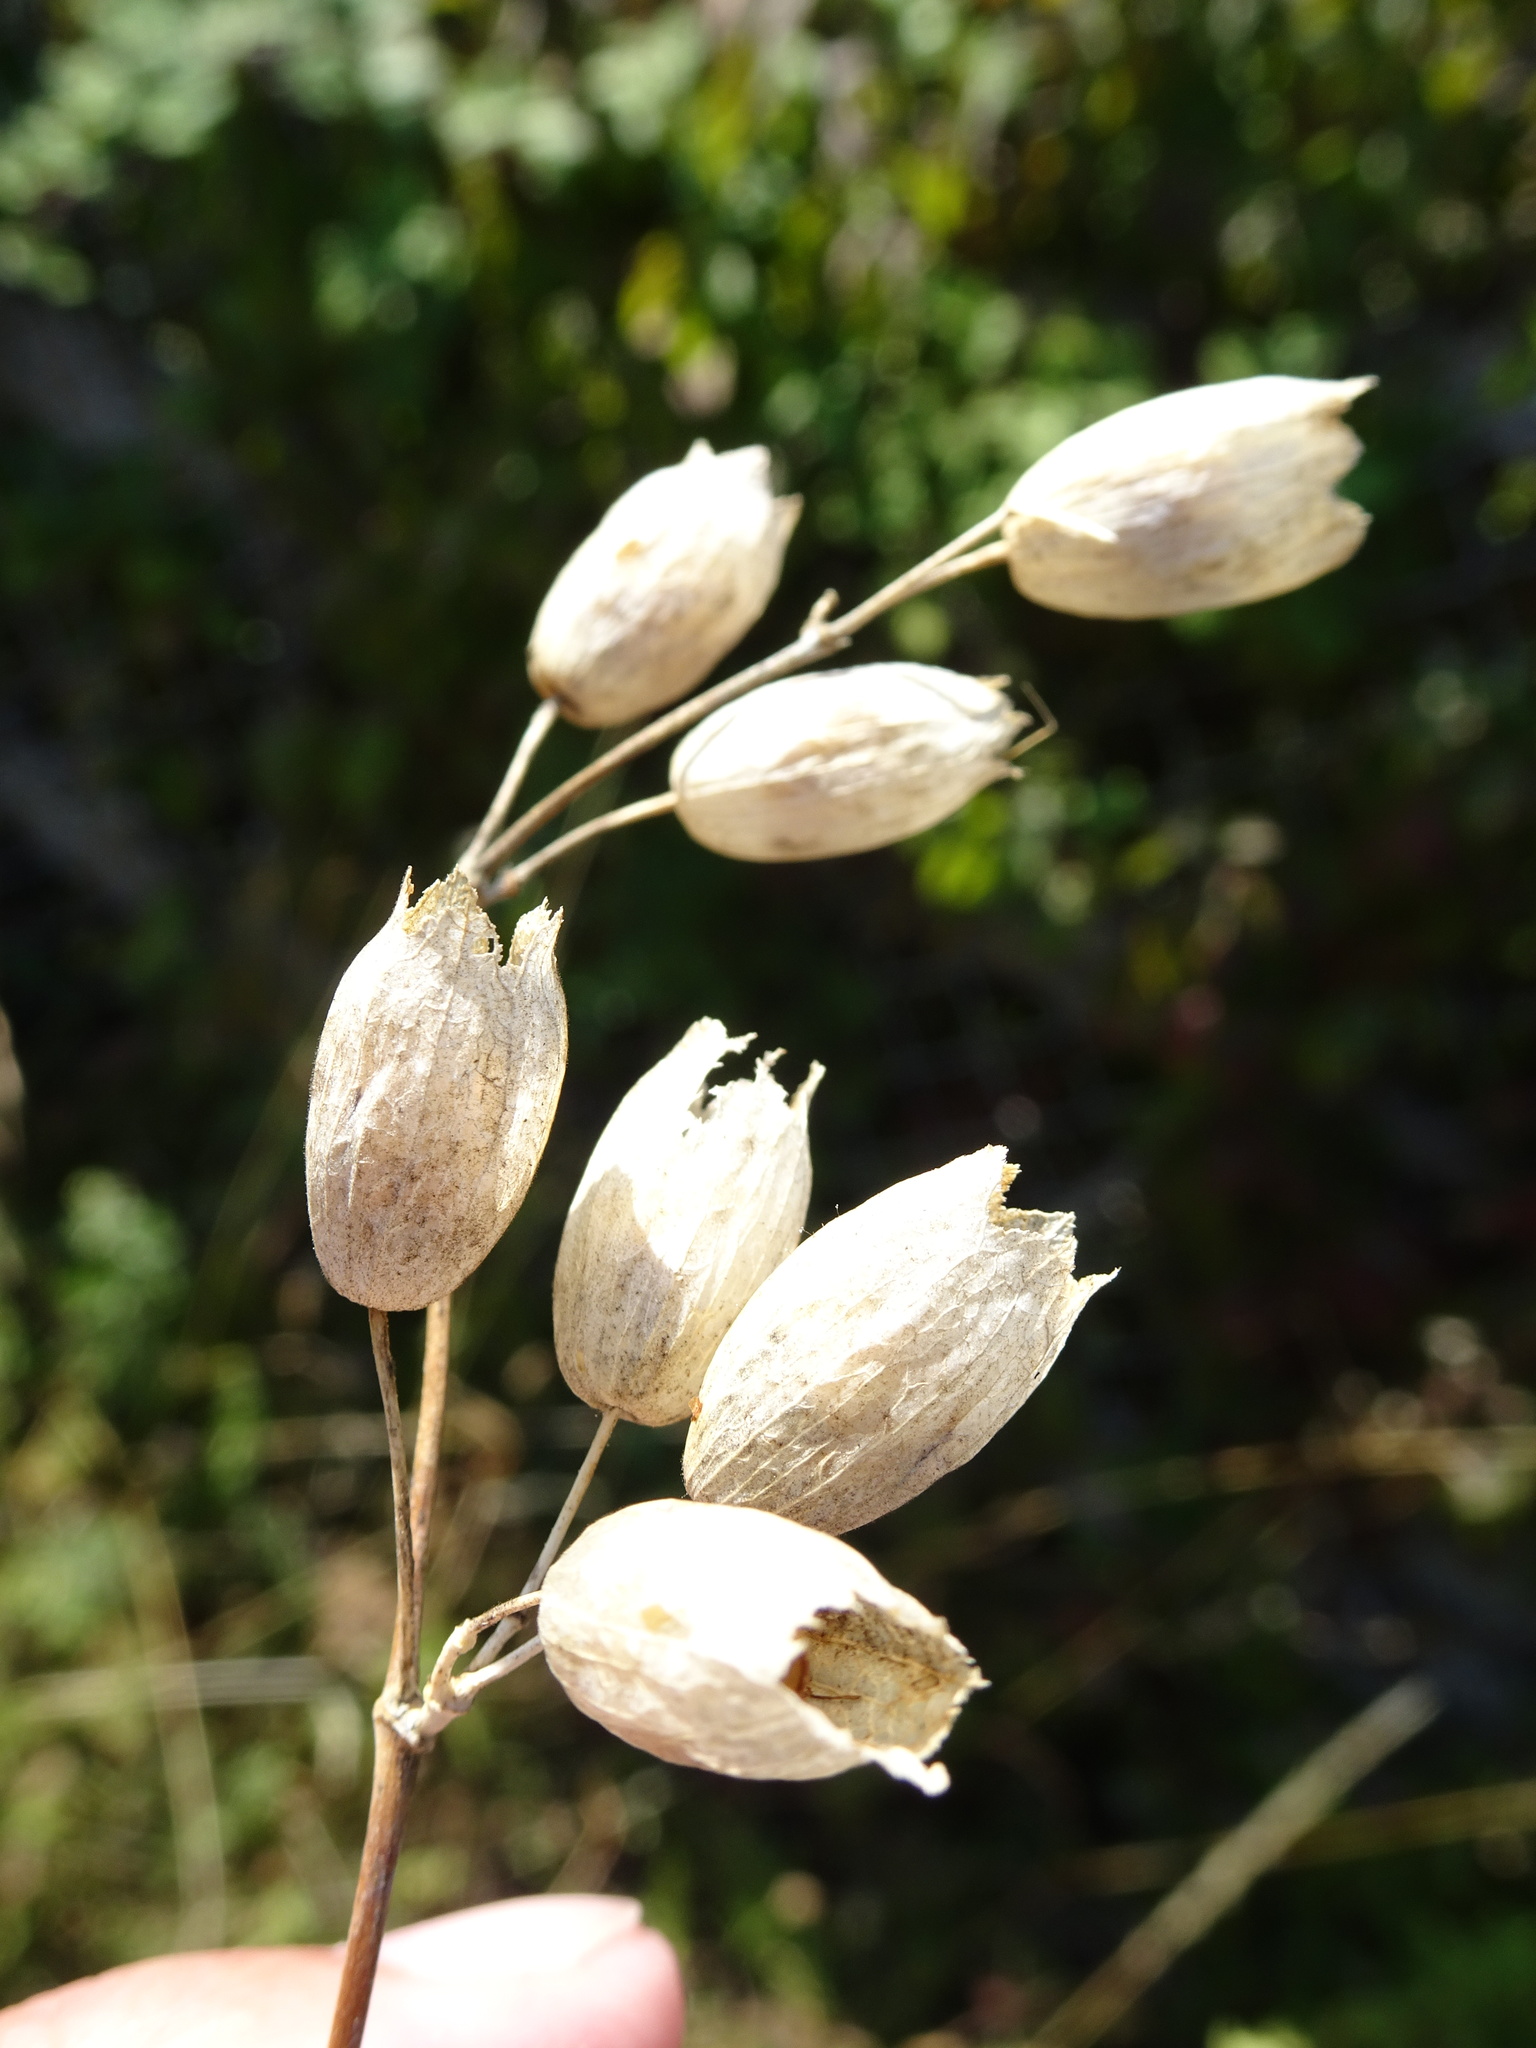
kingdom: Plantae
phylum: Tracheophyta
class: Magnoliopsida
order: Caryophyllales
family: Caryophyllaceae
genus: Silene
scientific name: Silene vulgaris
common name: Bladder campion
